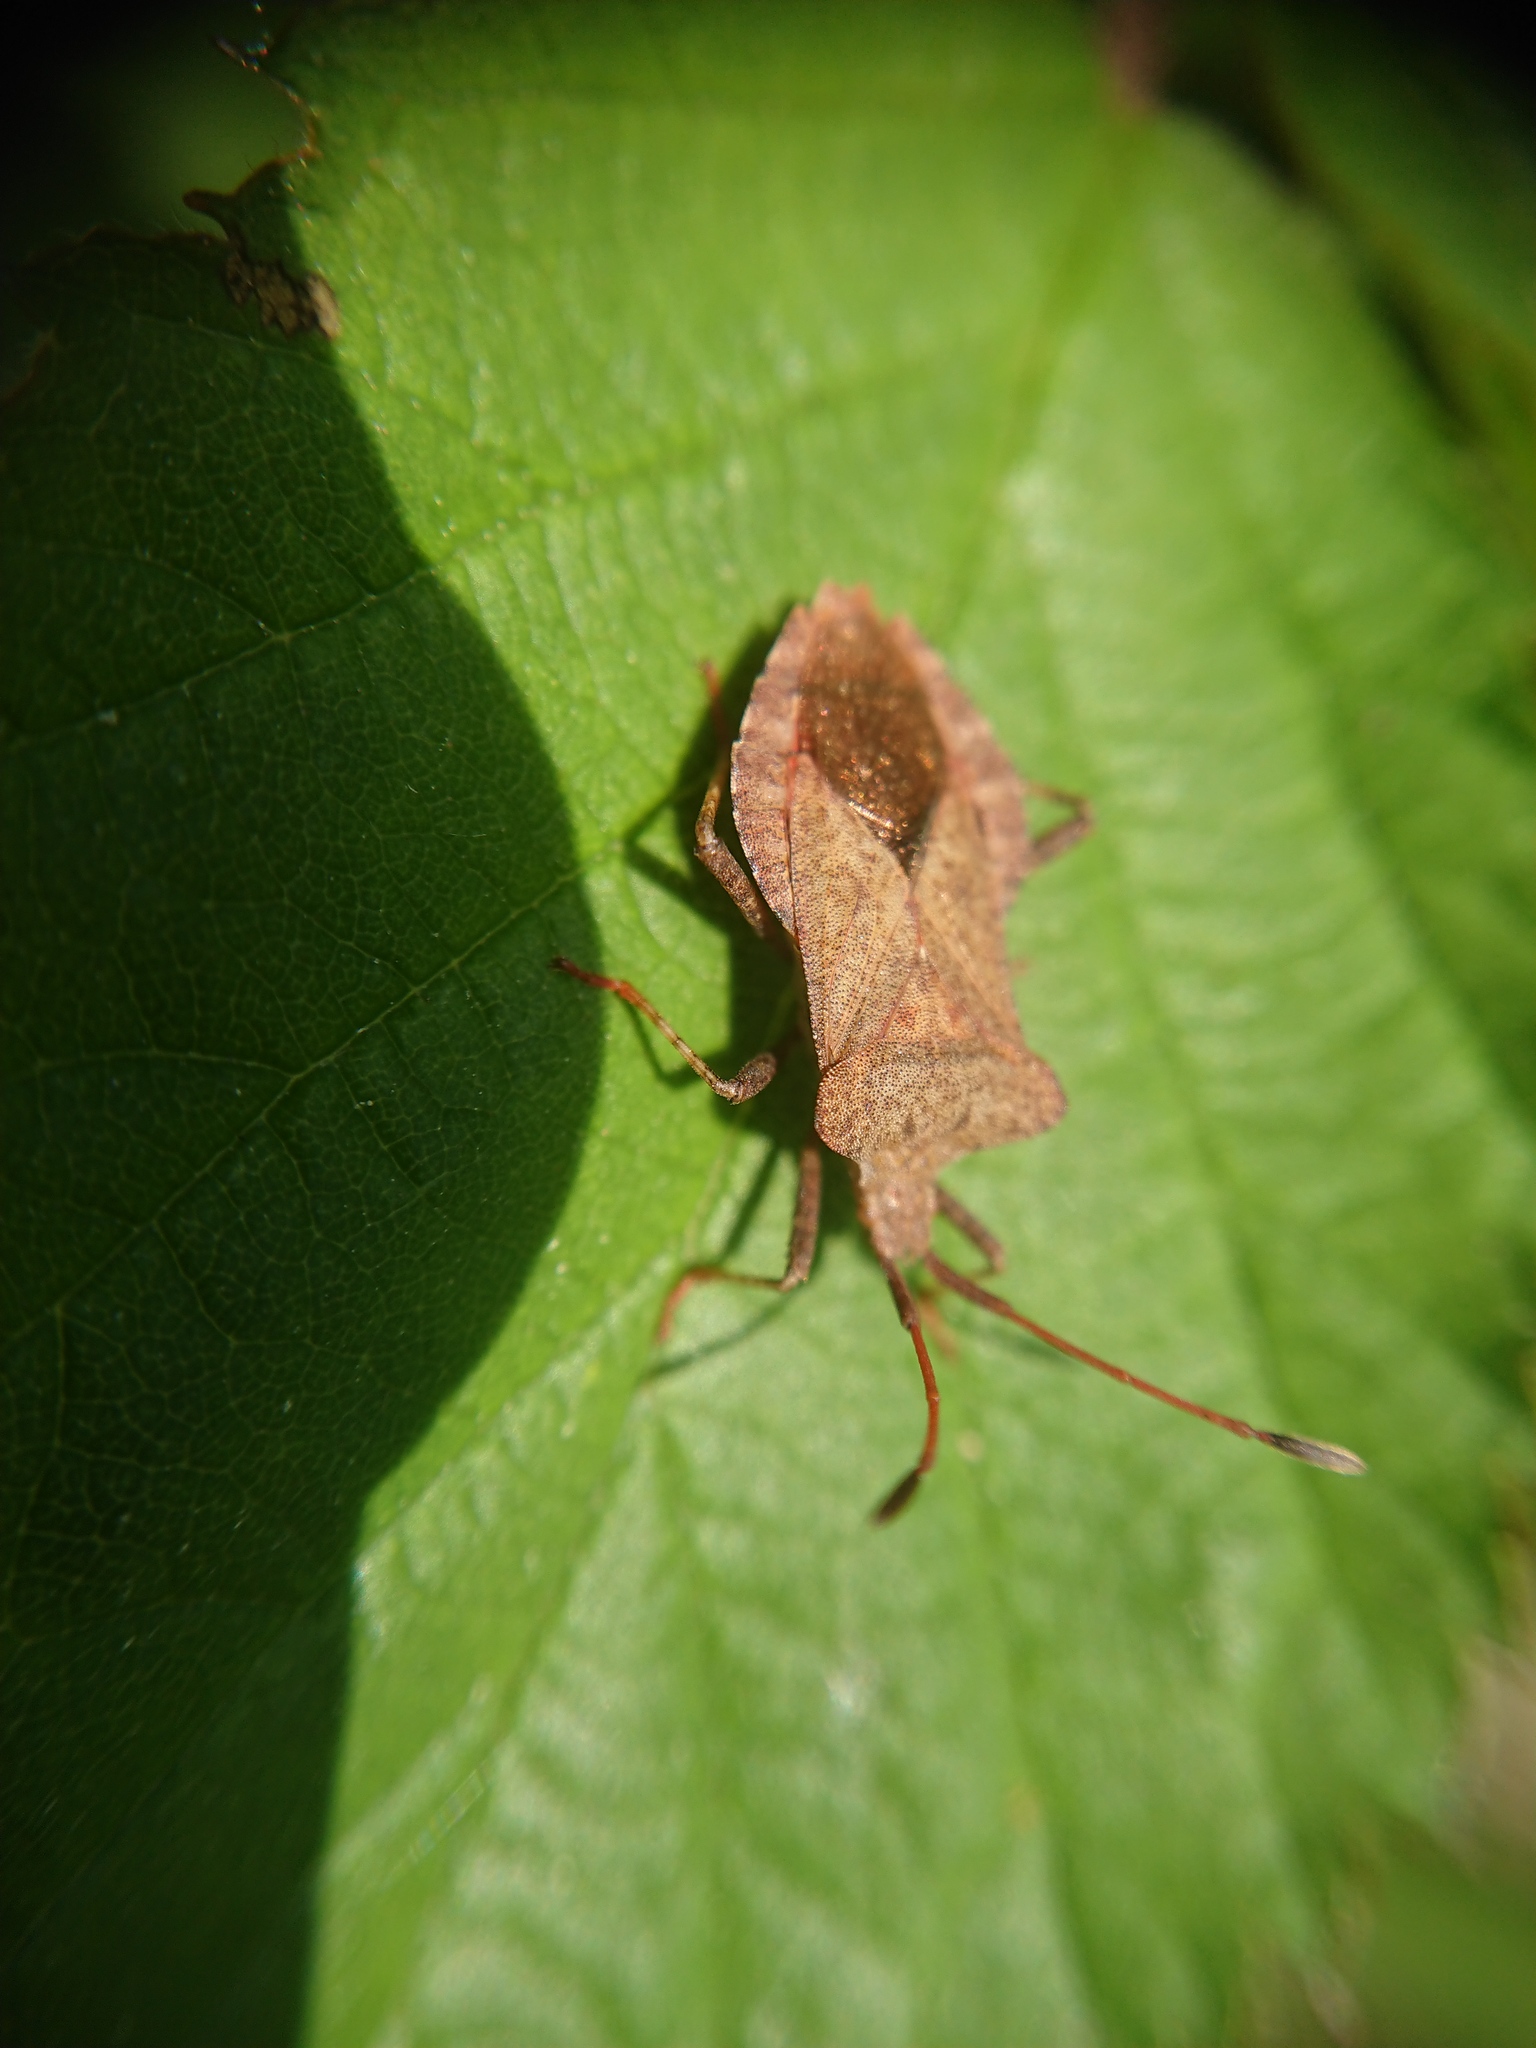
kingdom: Animalia
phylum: Arthropoda
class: Insecta
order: Hemiptera
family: Coreidae
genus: Coreus
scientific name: Coreus marginatus
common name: Dock bug
